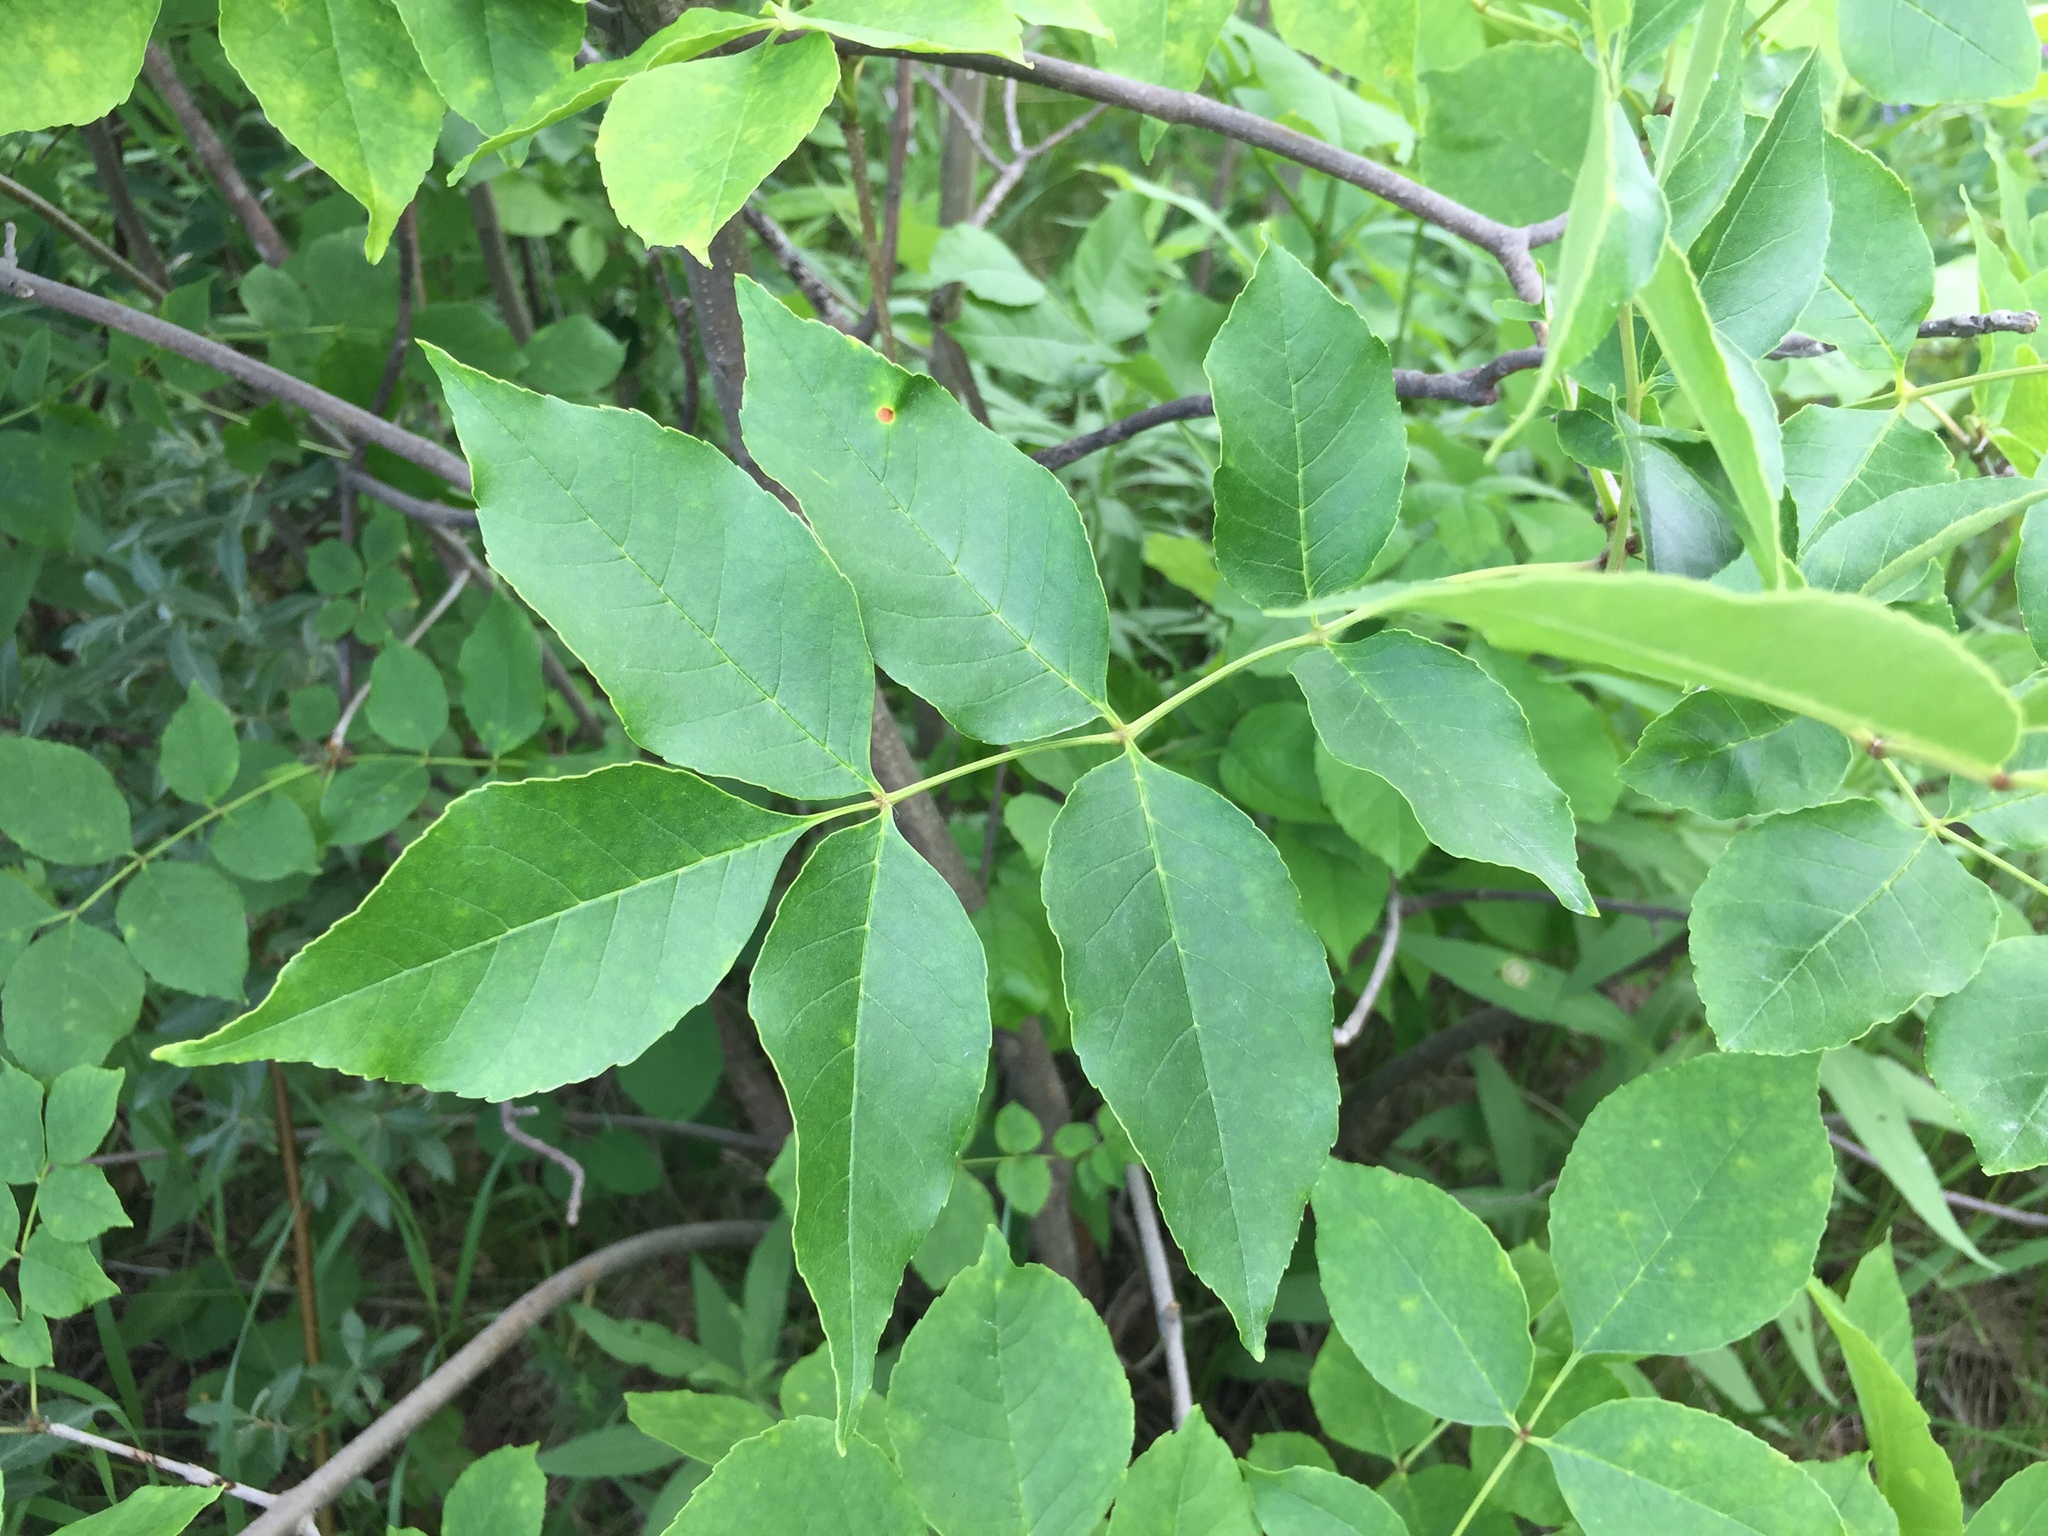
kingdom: Plantae
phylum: Tracheophyta
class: Magnoliopsida
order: Lamiales
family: Oleaceae
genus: Fraxinus
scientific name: Fraxinus pennsylvanica
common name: Green ash
